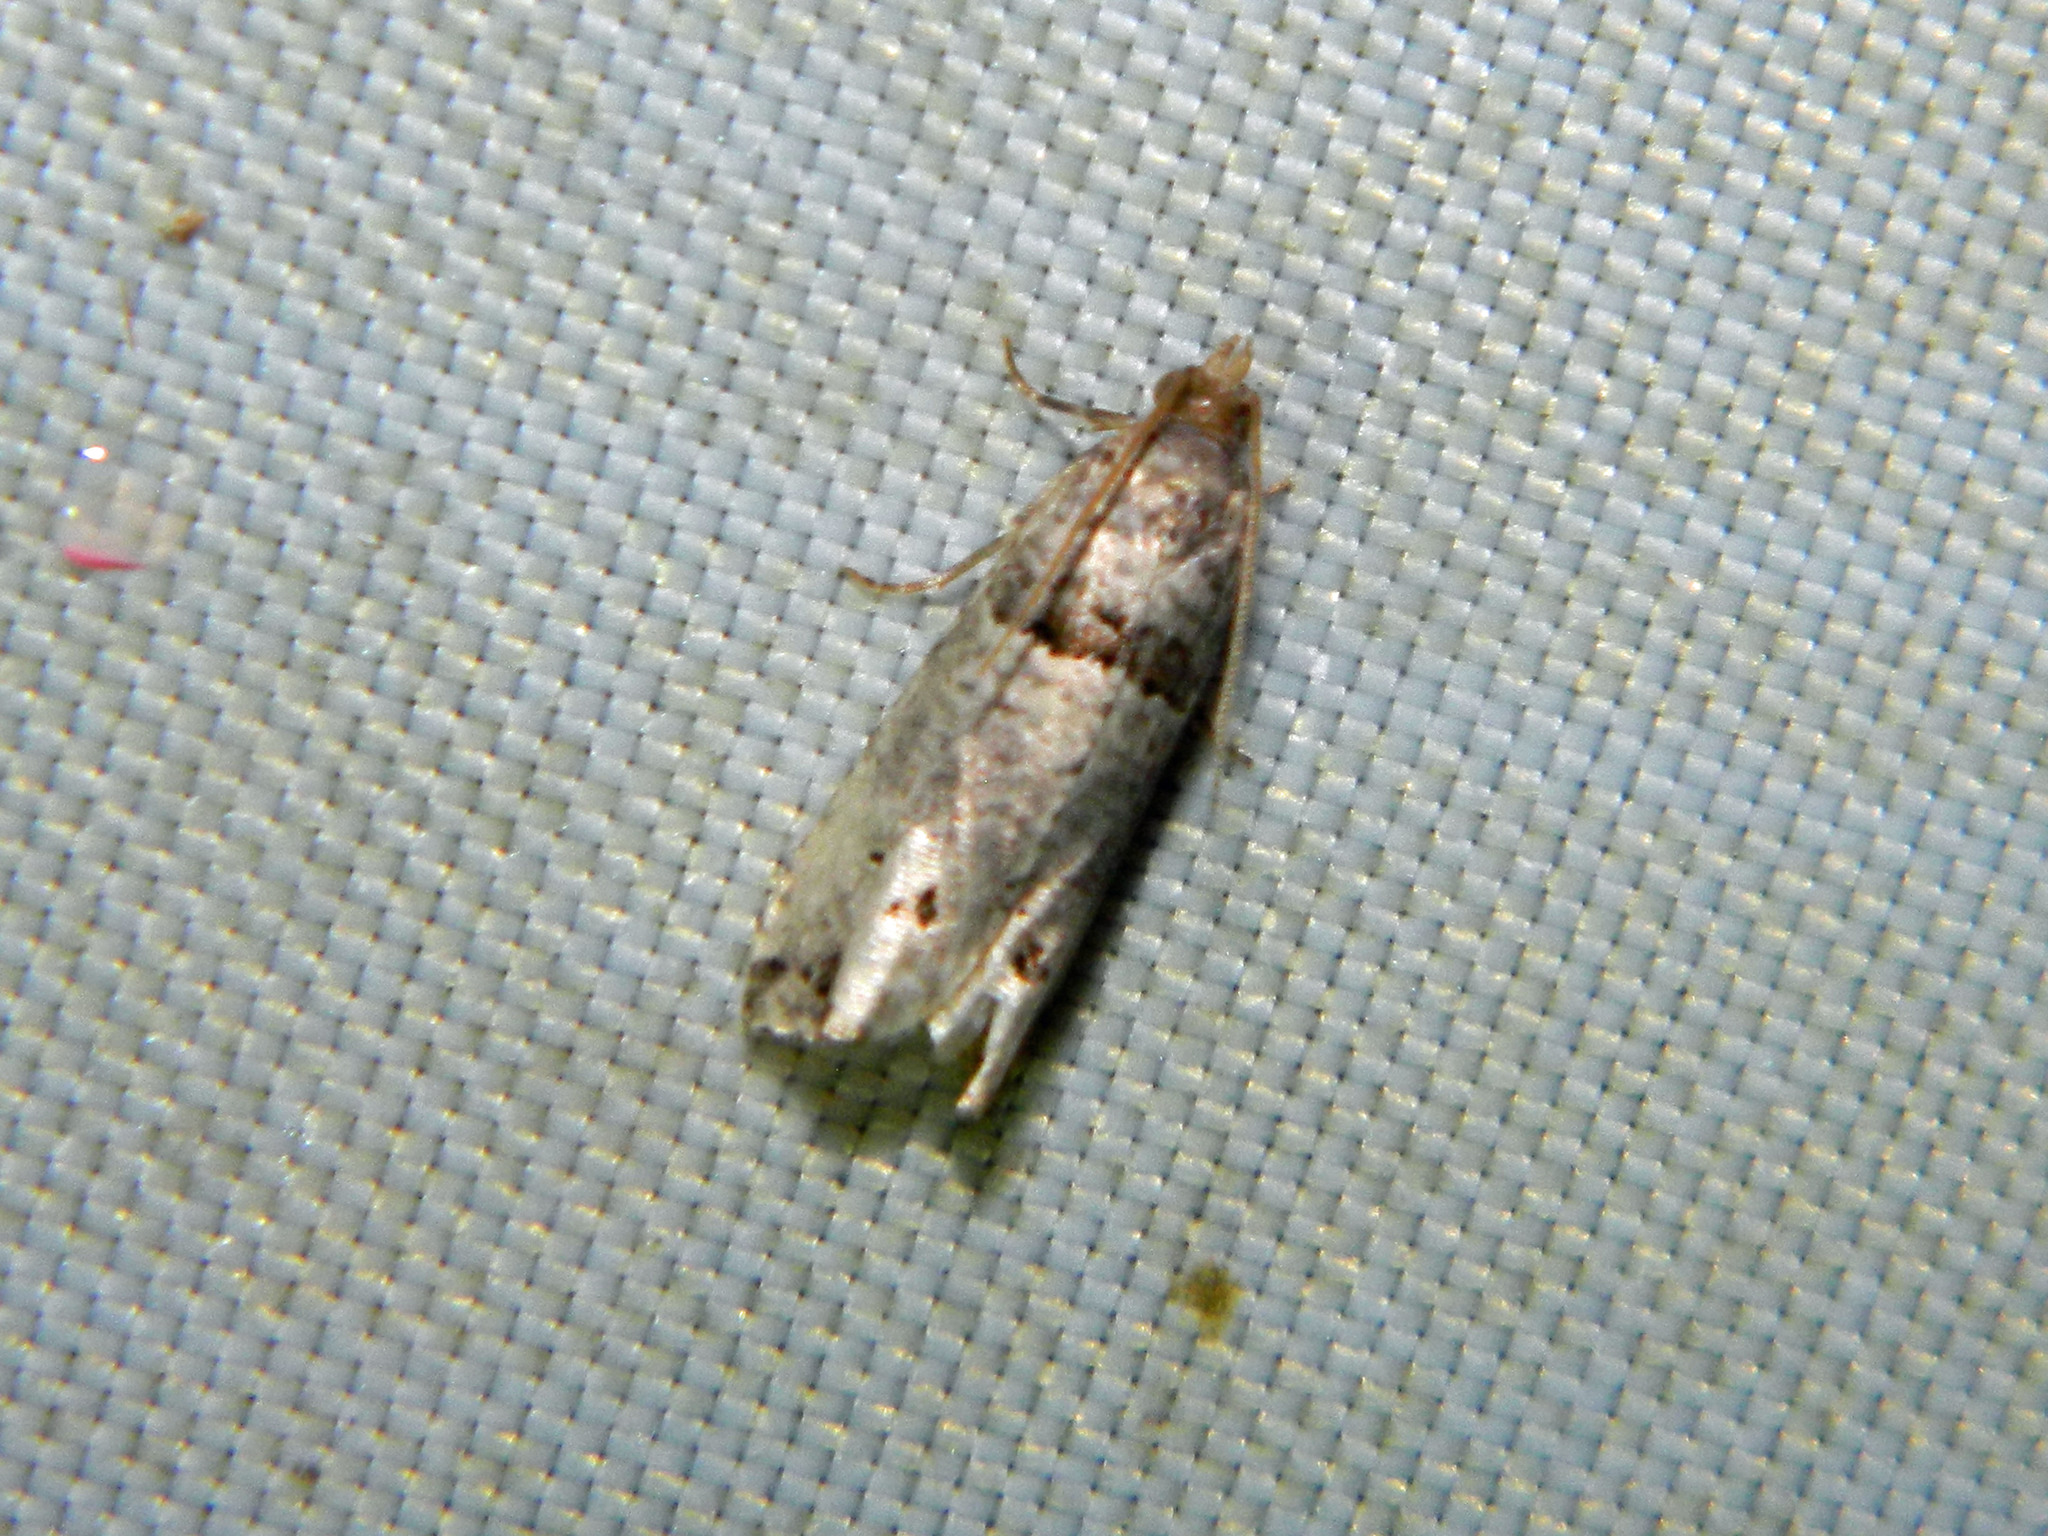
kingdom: Animalia
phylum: Arthropoda
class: Insecta
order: Lepidoptera
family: Tortricidae
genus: Notocelia
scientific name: Notocelia culminana
